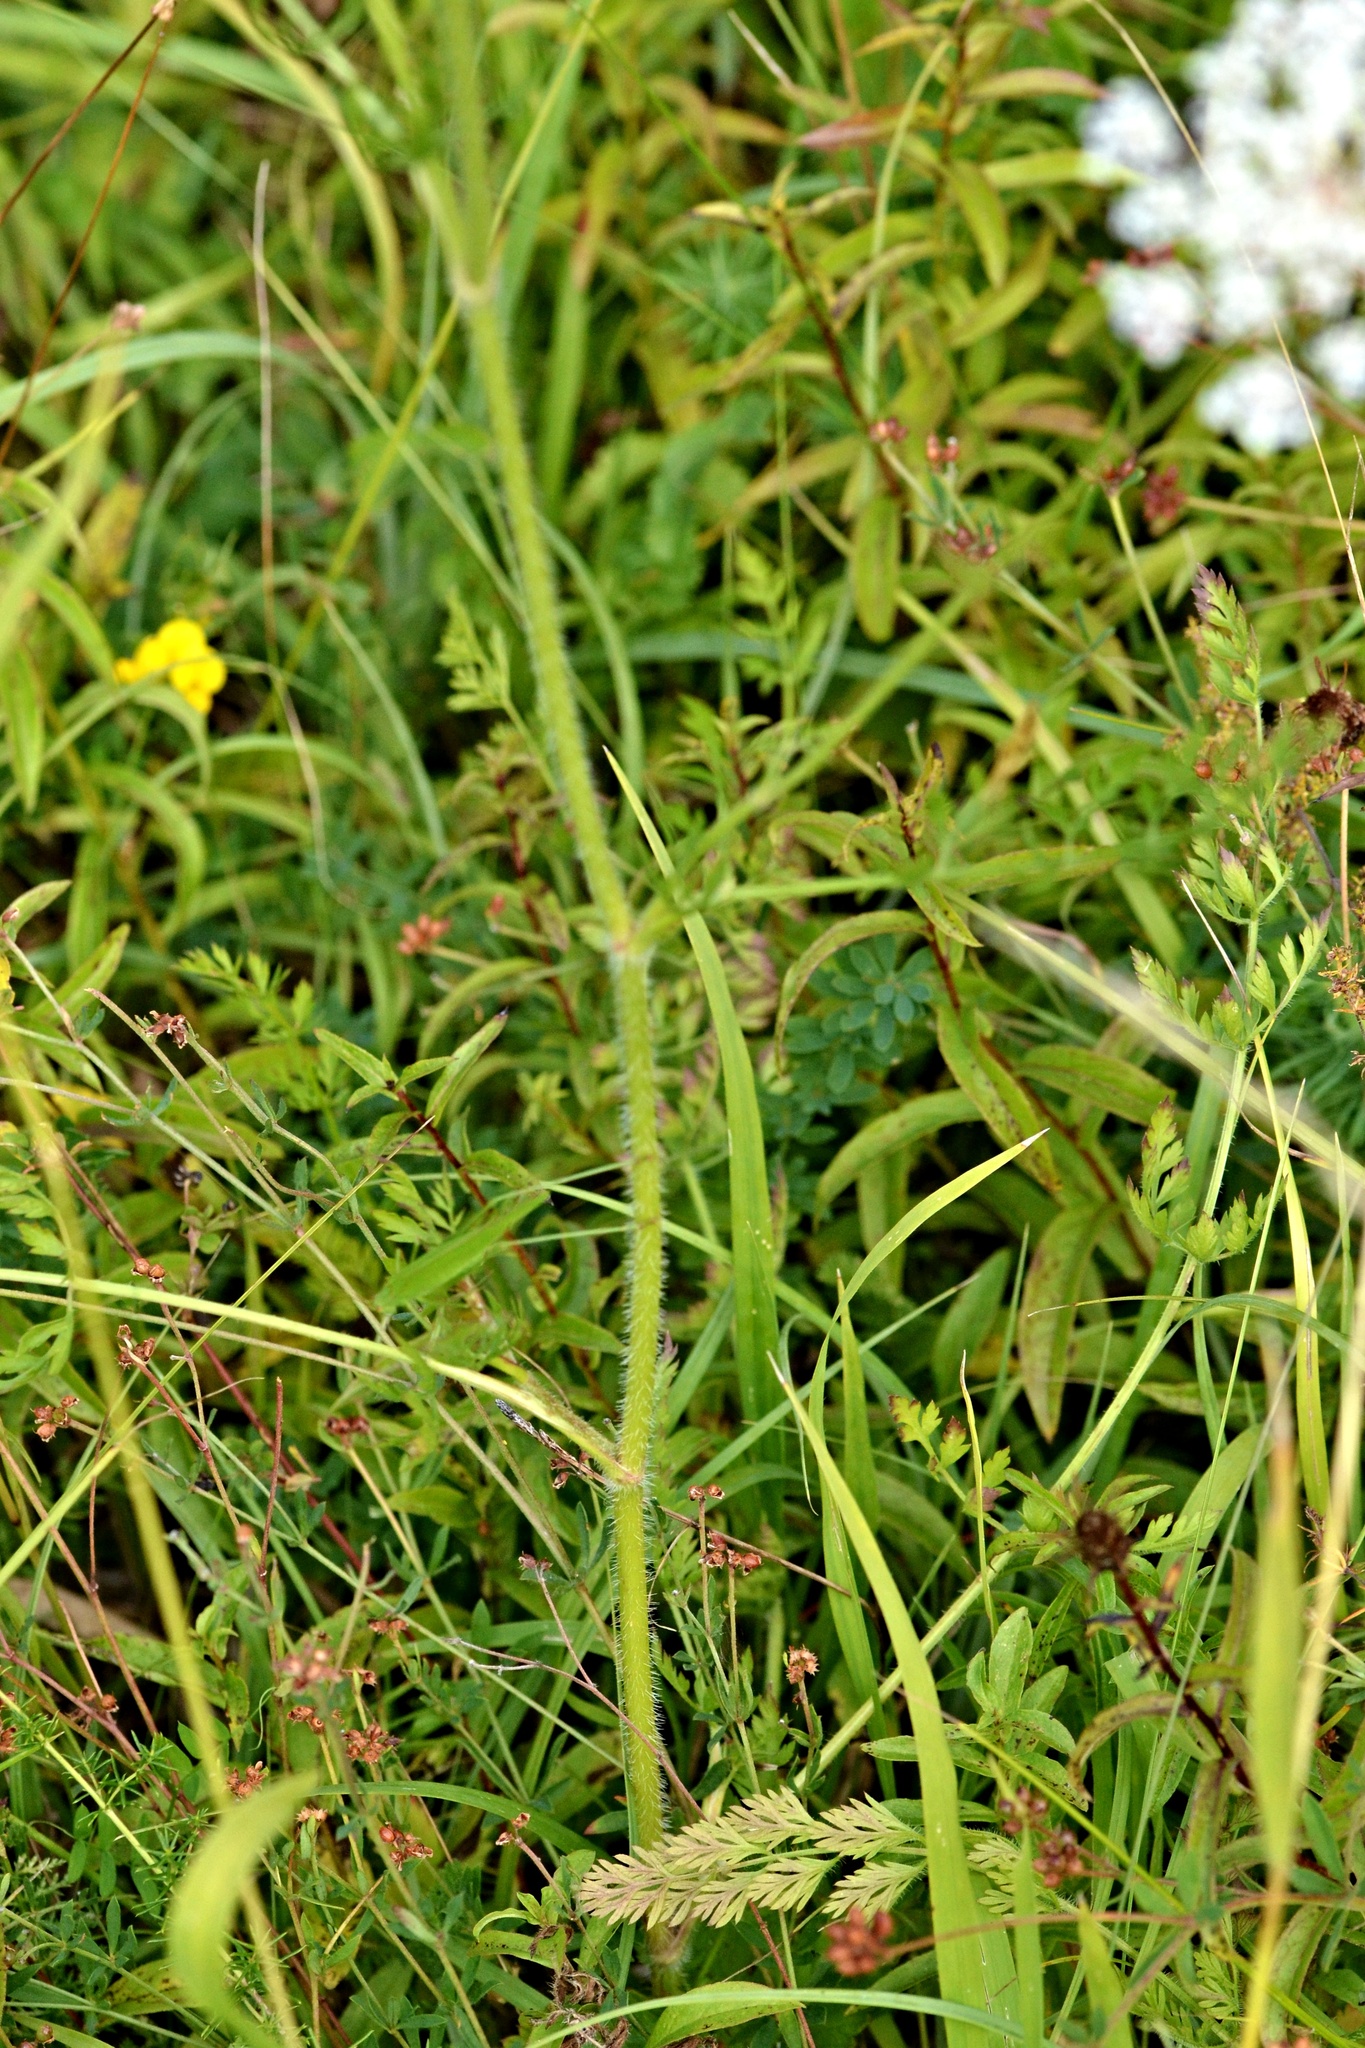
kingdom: Plantae
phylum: Tracheophyta
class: Magnoliopsida
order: Apiales
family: Apiaceae
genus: Daucus
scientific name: Daucus carota
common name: Wild carrot
